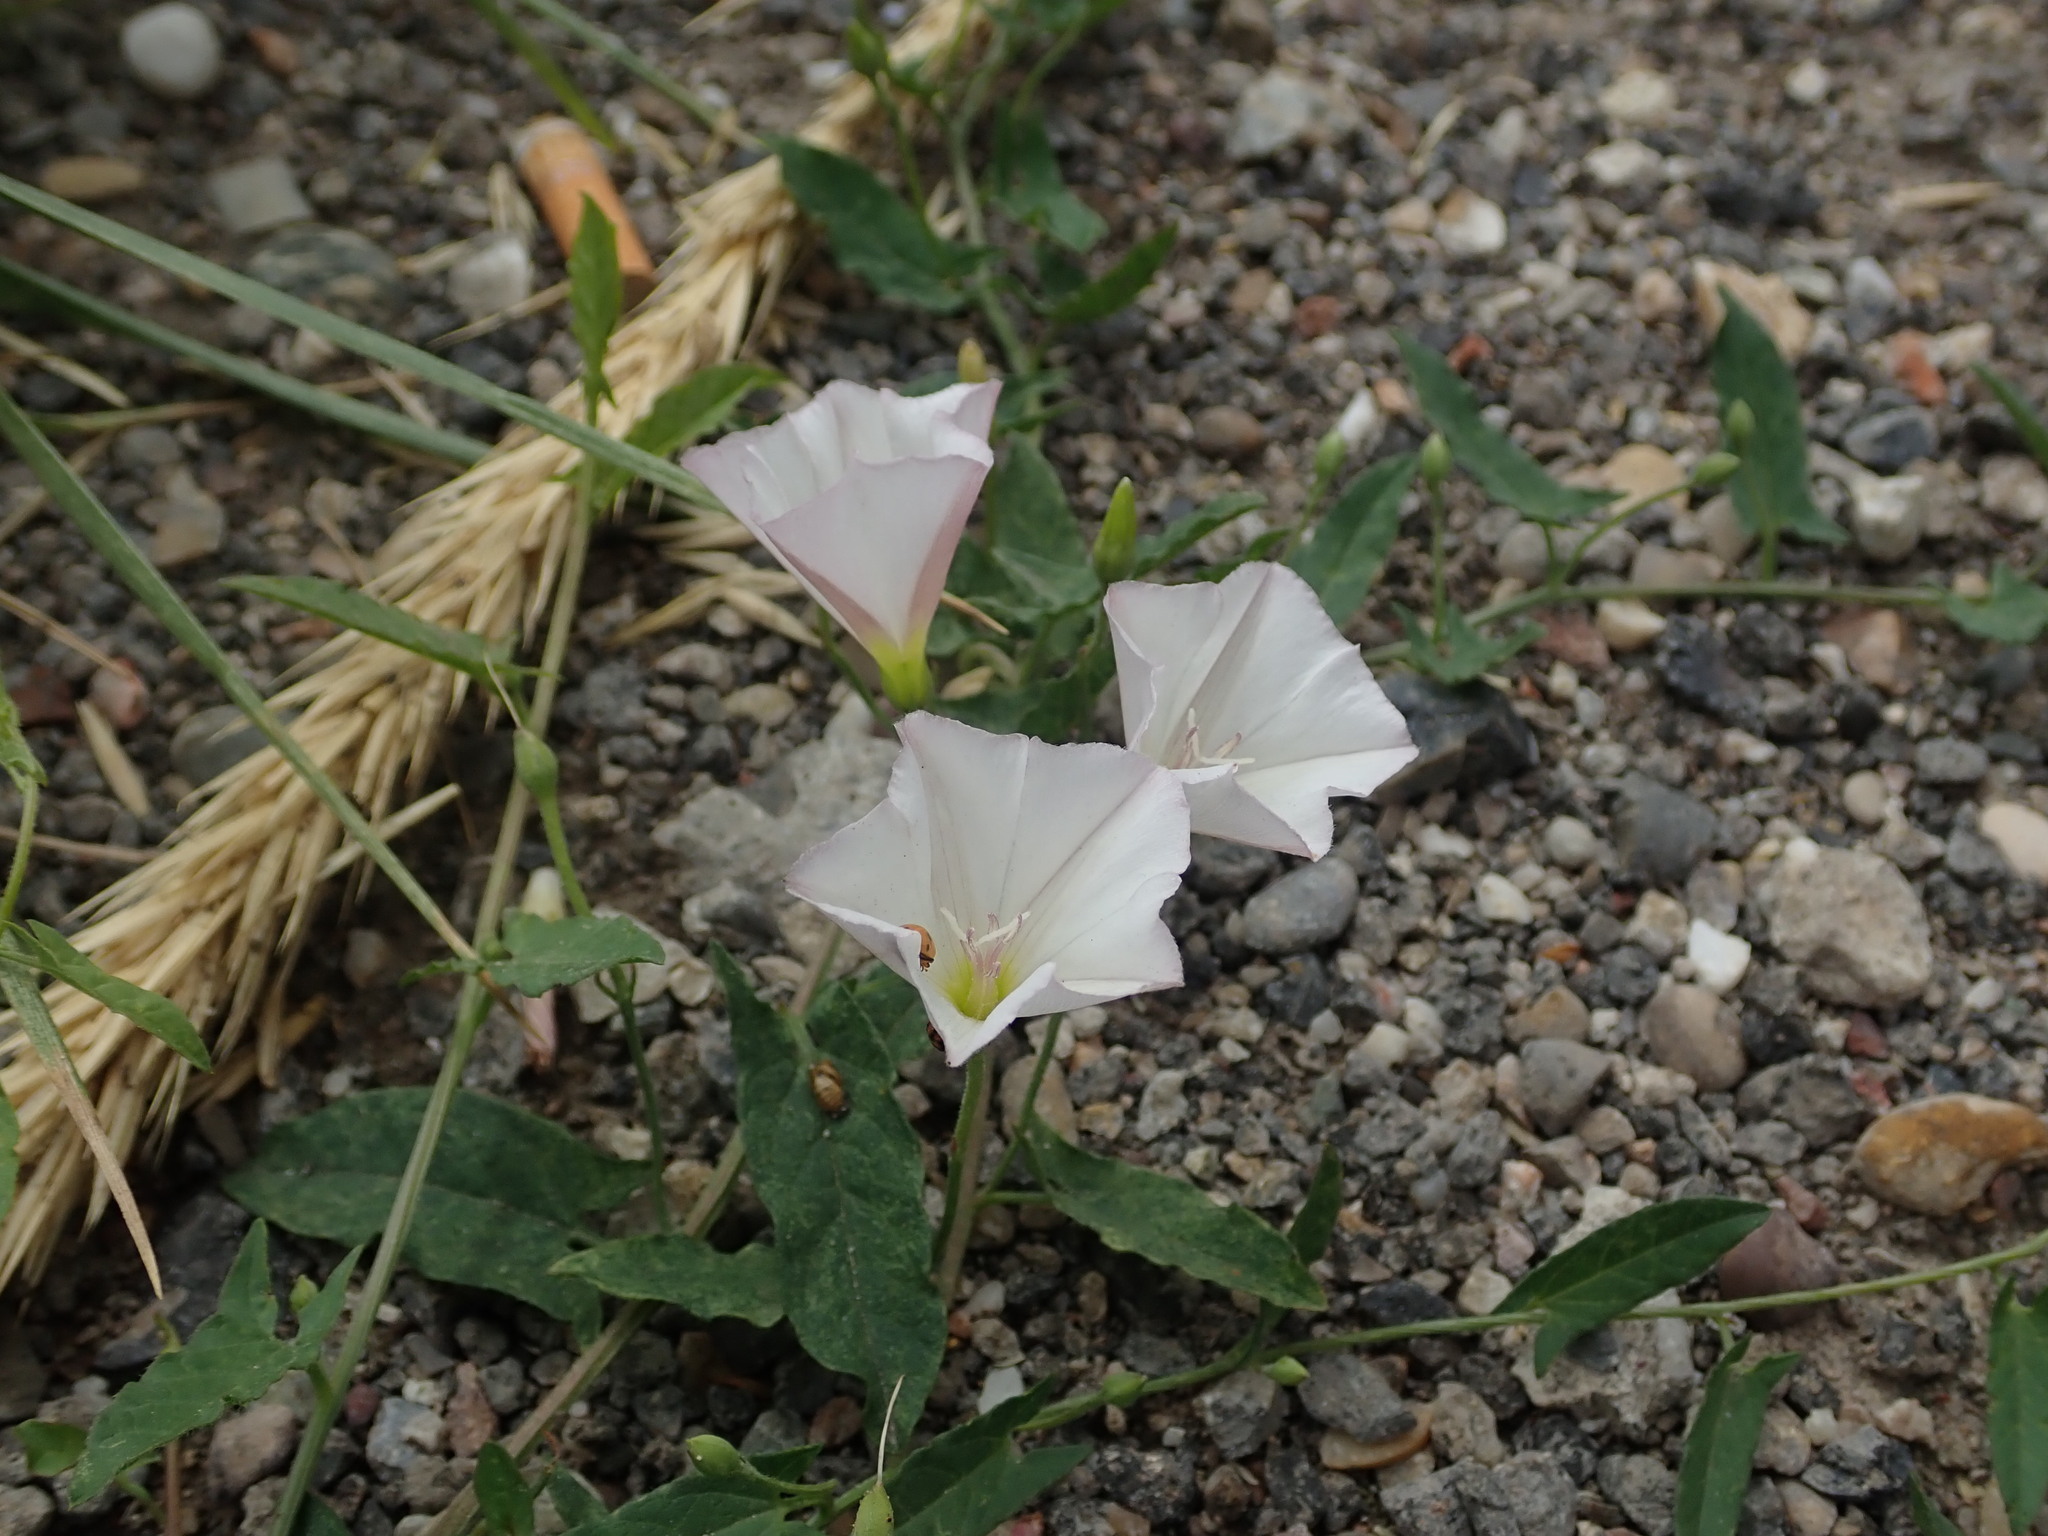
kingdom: Plantae
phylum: Tracheophyta
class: Magnoliopsida
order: Solanales
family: Convolvulaceae
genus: Convolvulus
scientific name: Convolvulus arvensis
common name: Field bindweed
